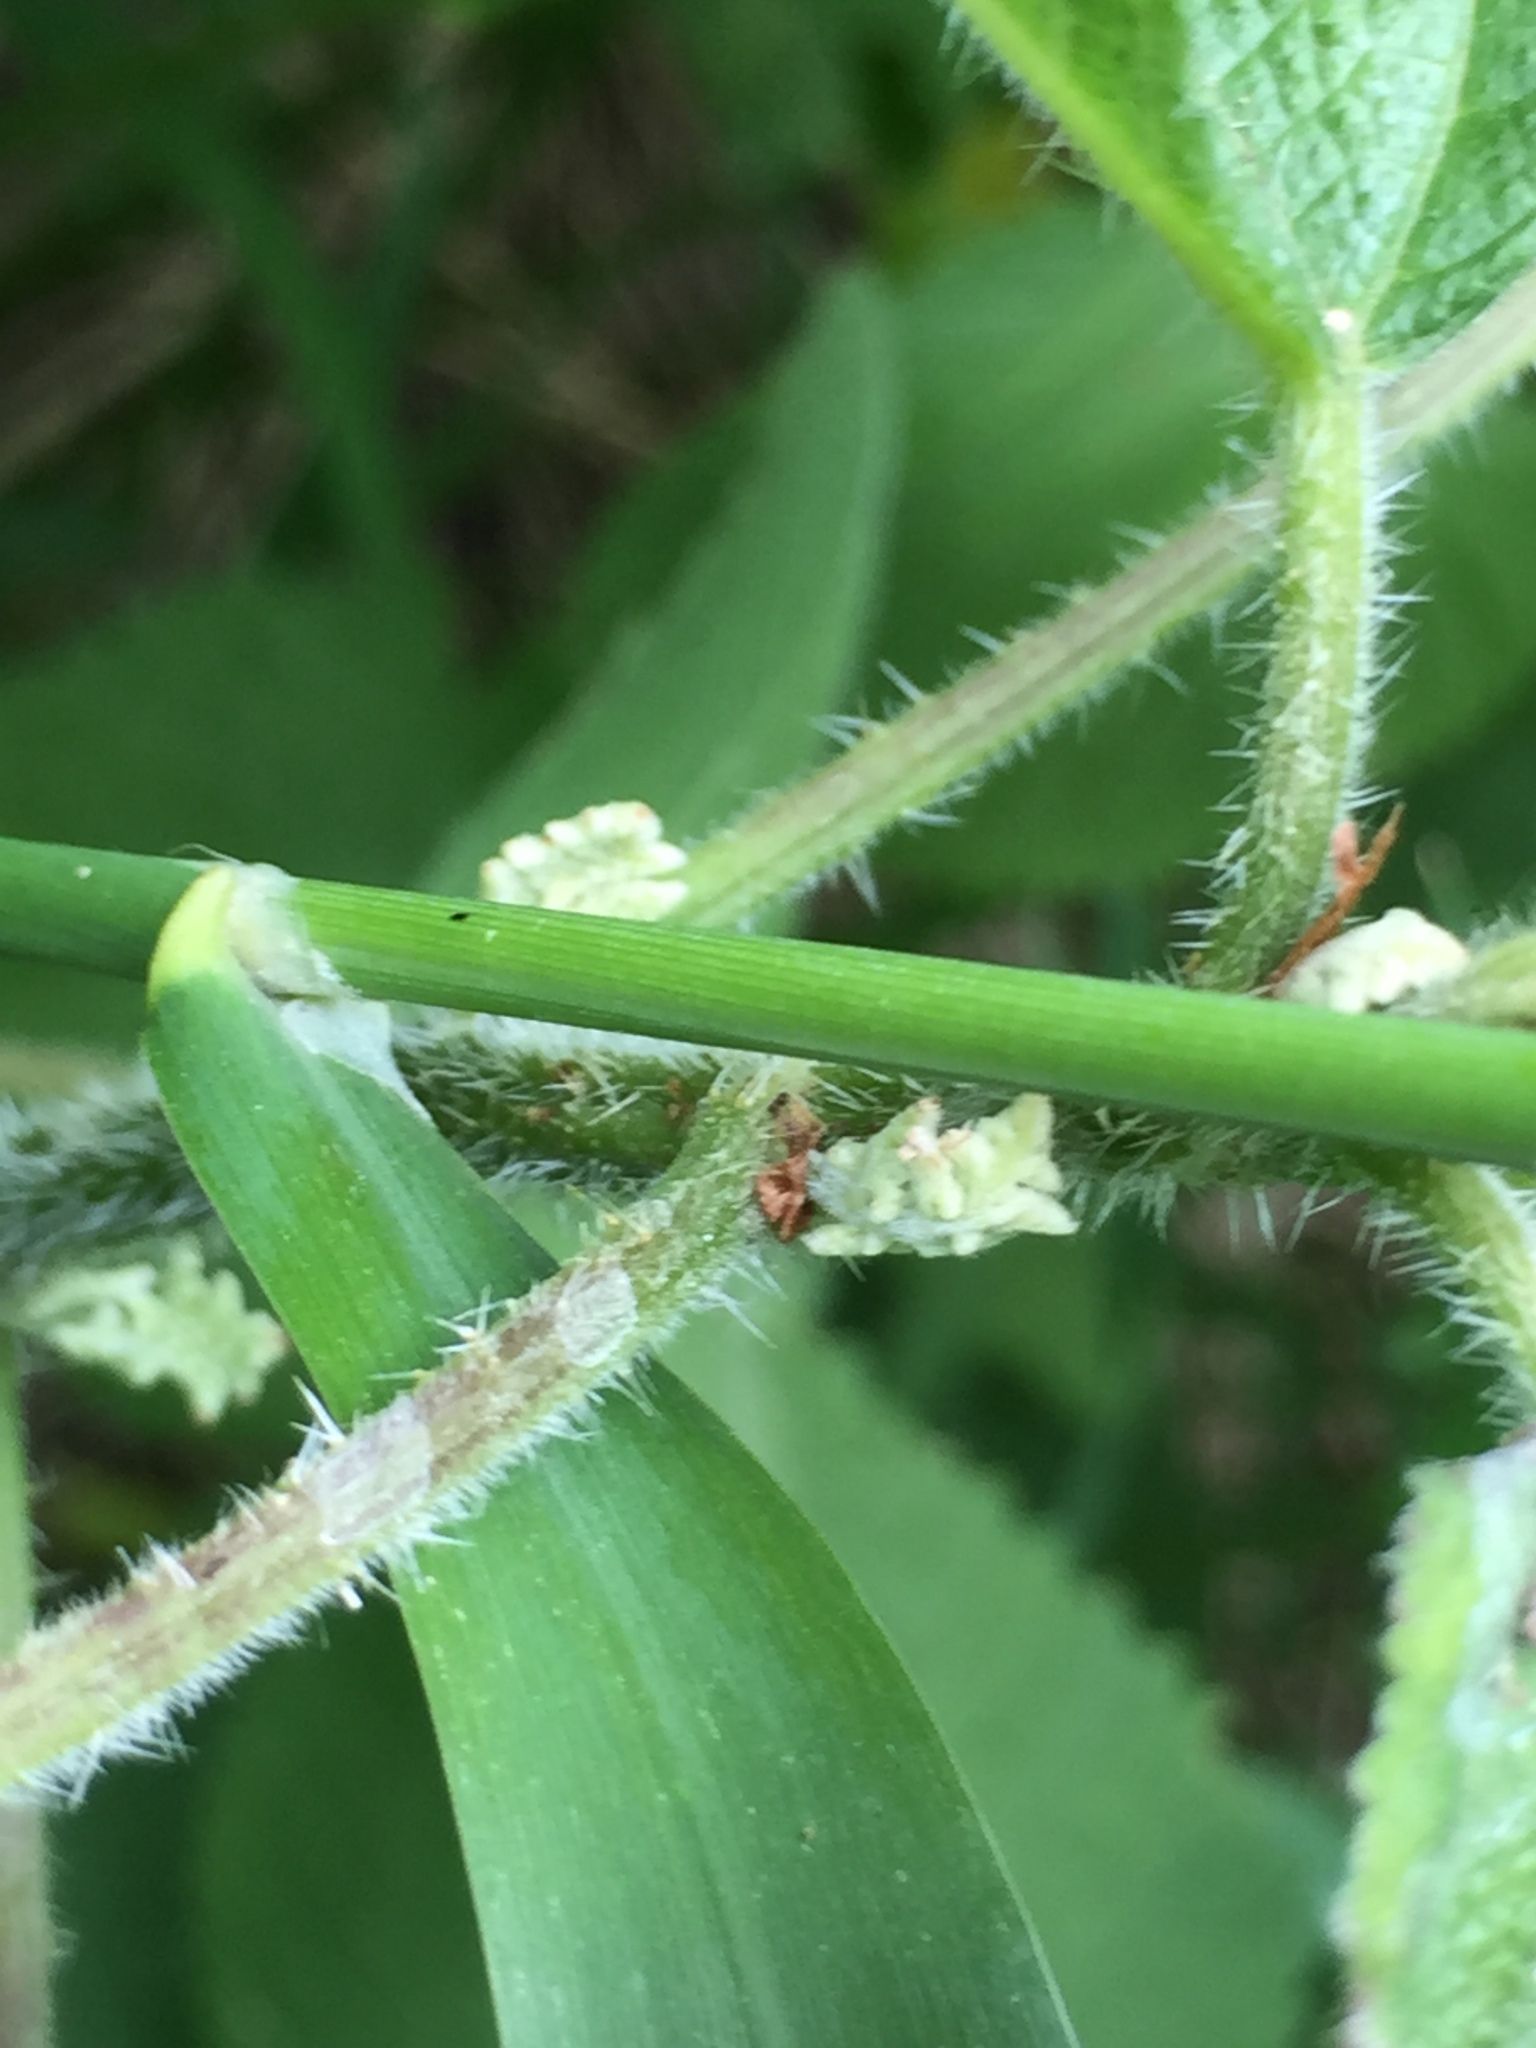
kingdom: Plantae
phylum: Tracheophyta
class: Magnoliopsida
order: Rosales
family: Urticaceae
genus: Laportea
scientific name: Laportea canadensis
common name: Canada nettle
